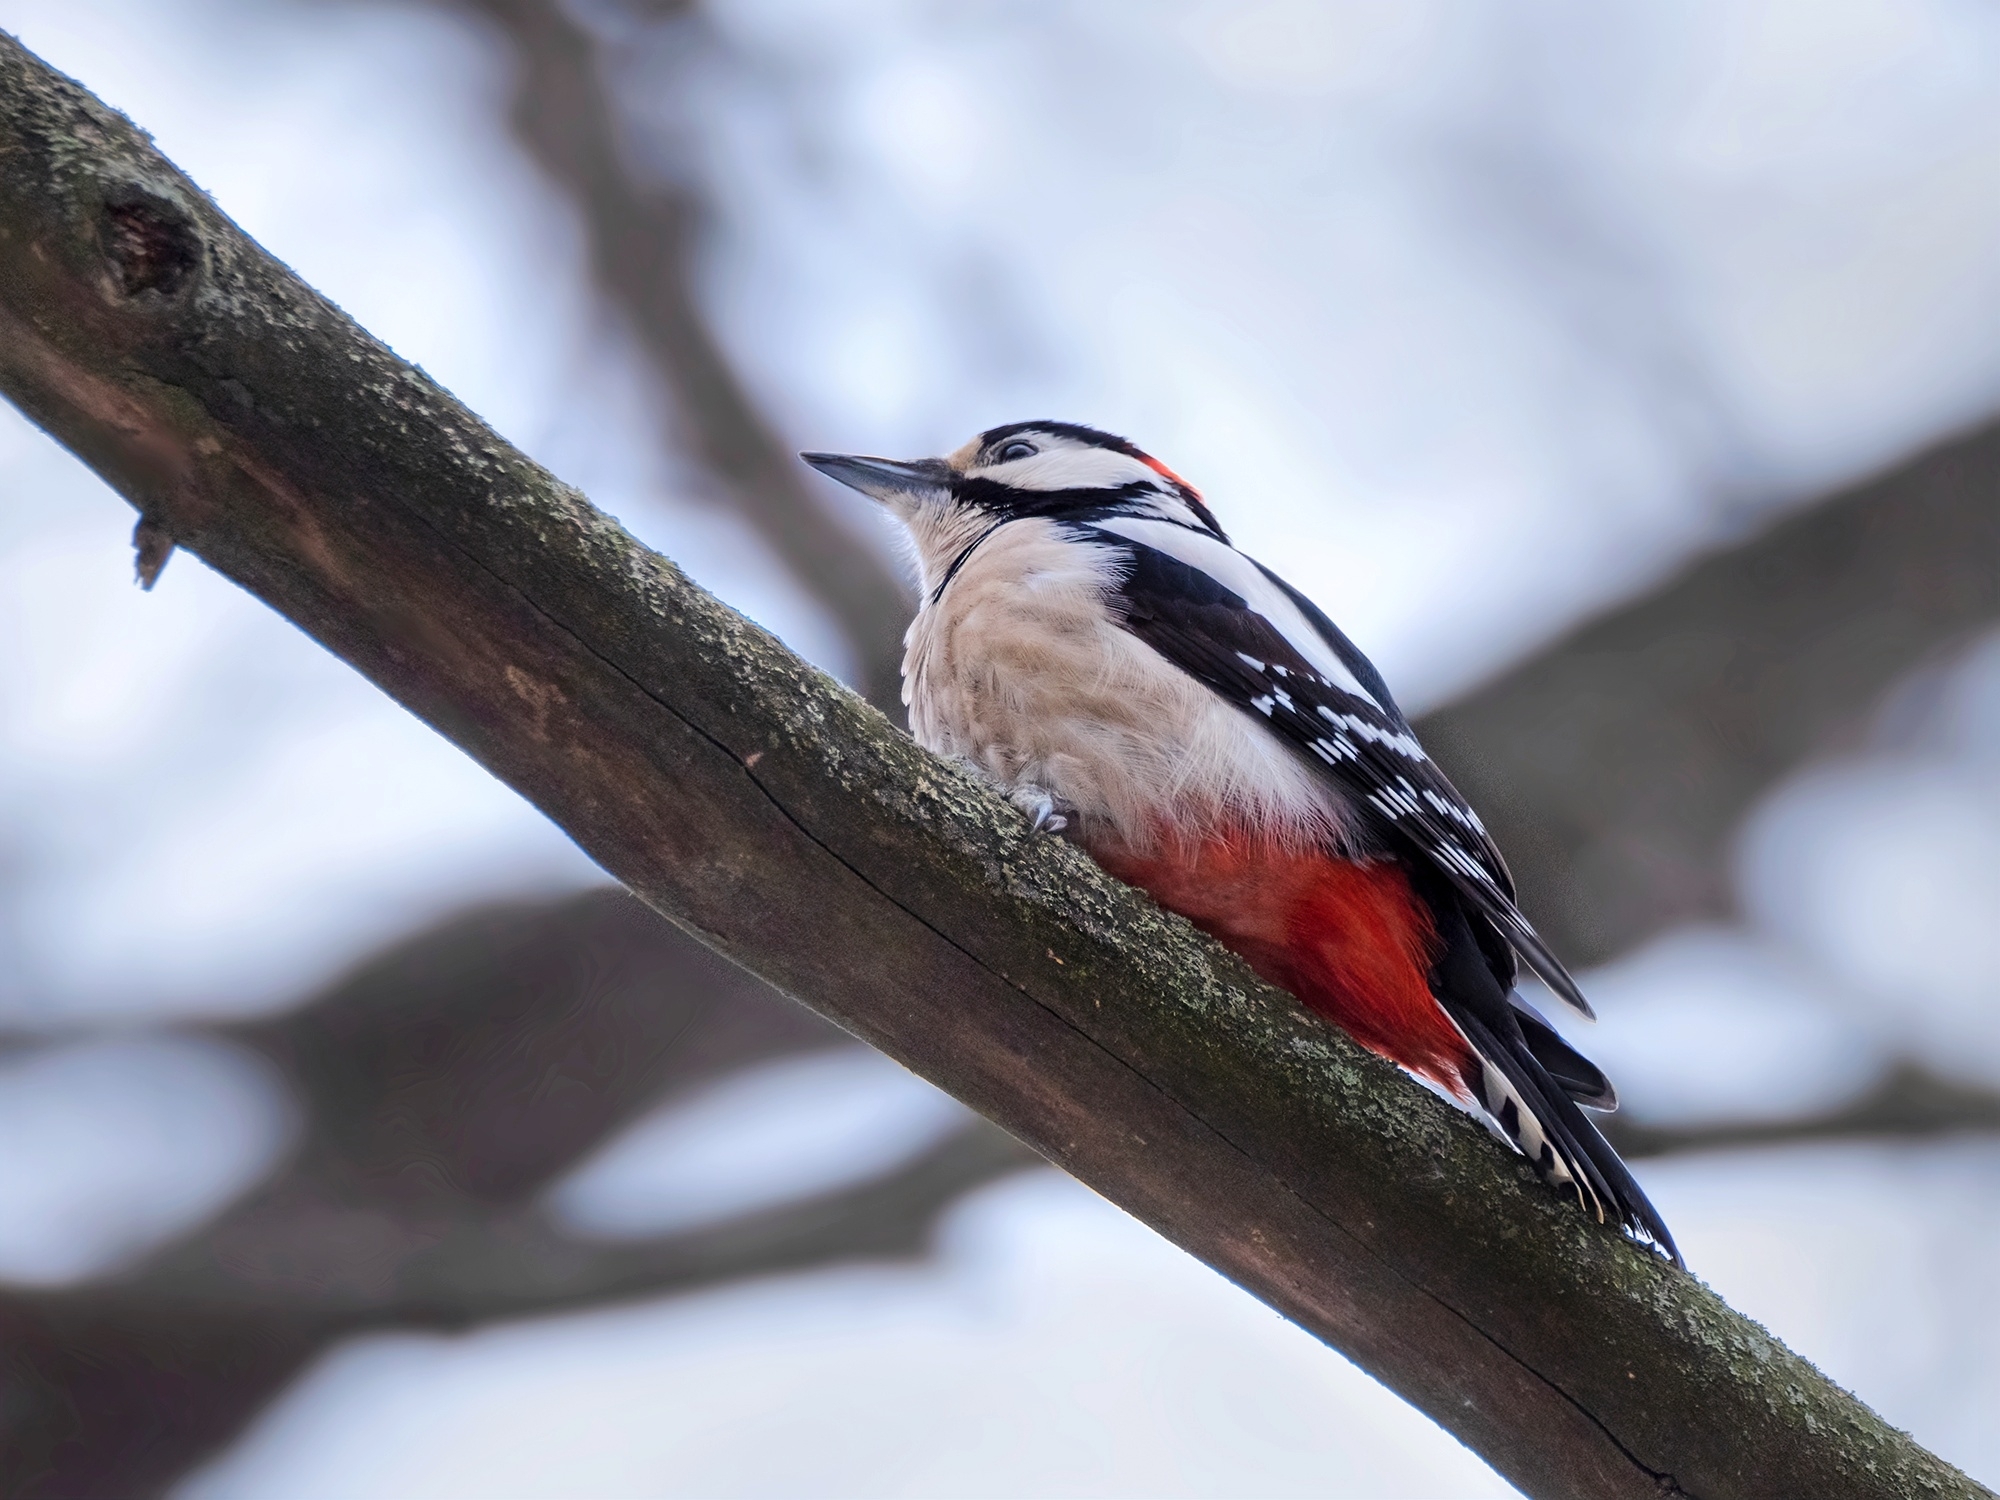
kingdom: Animalia
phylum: Chordata
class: Aves
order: Piciformes
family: Picidae
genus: Dendrocopos
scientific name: Dendrocopos major
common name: Great spotted woodpecker
